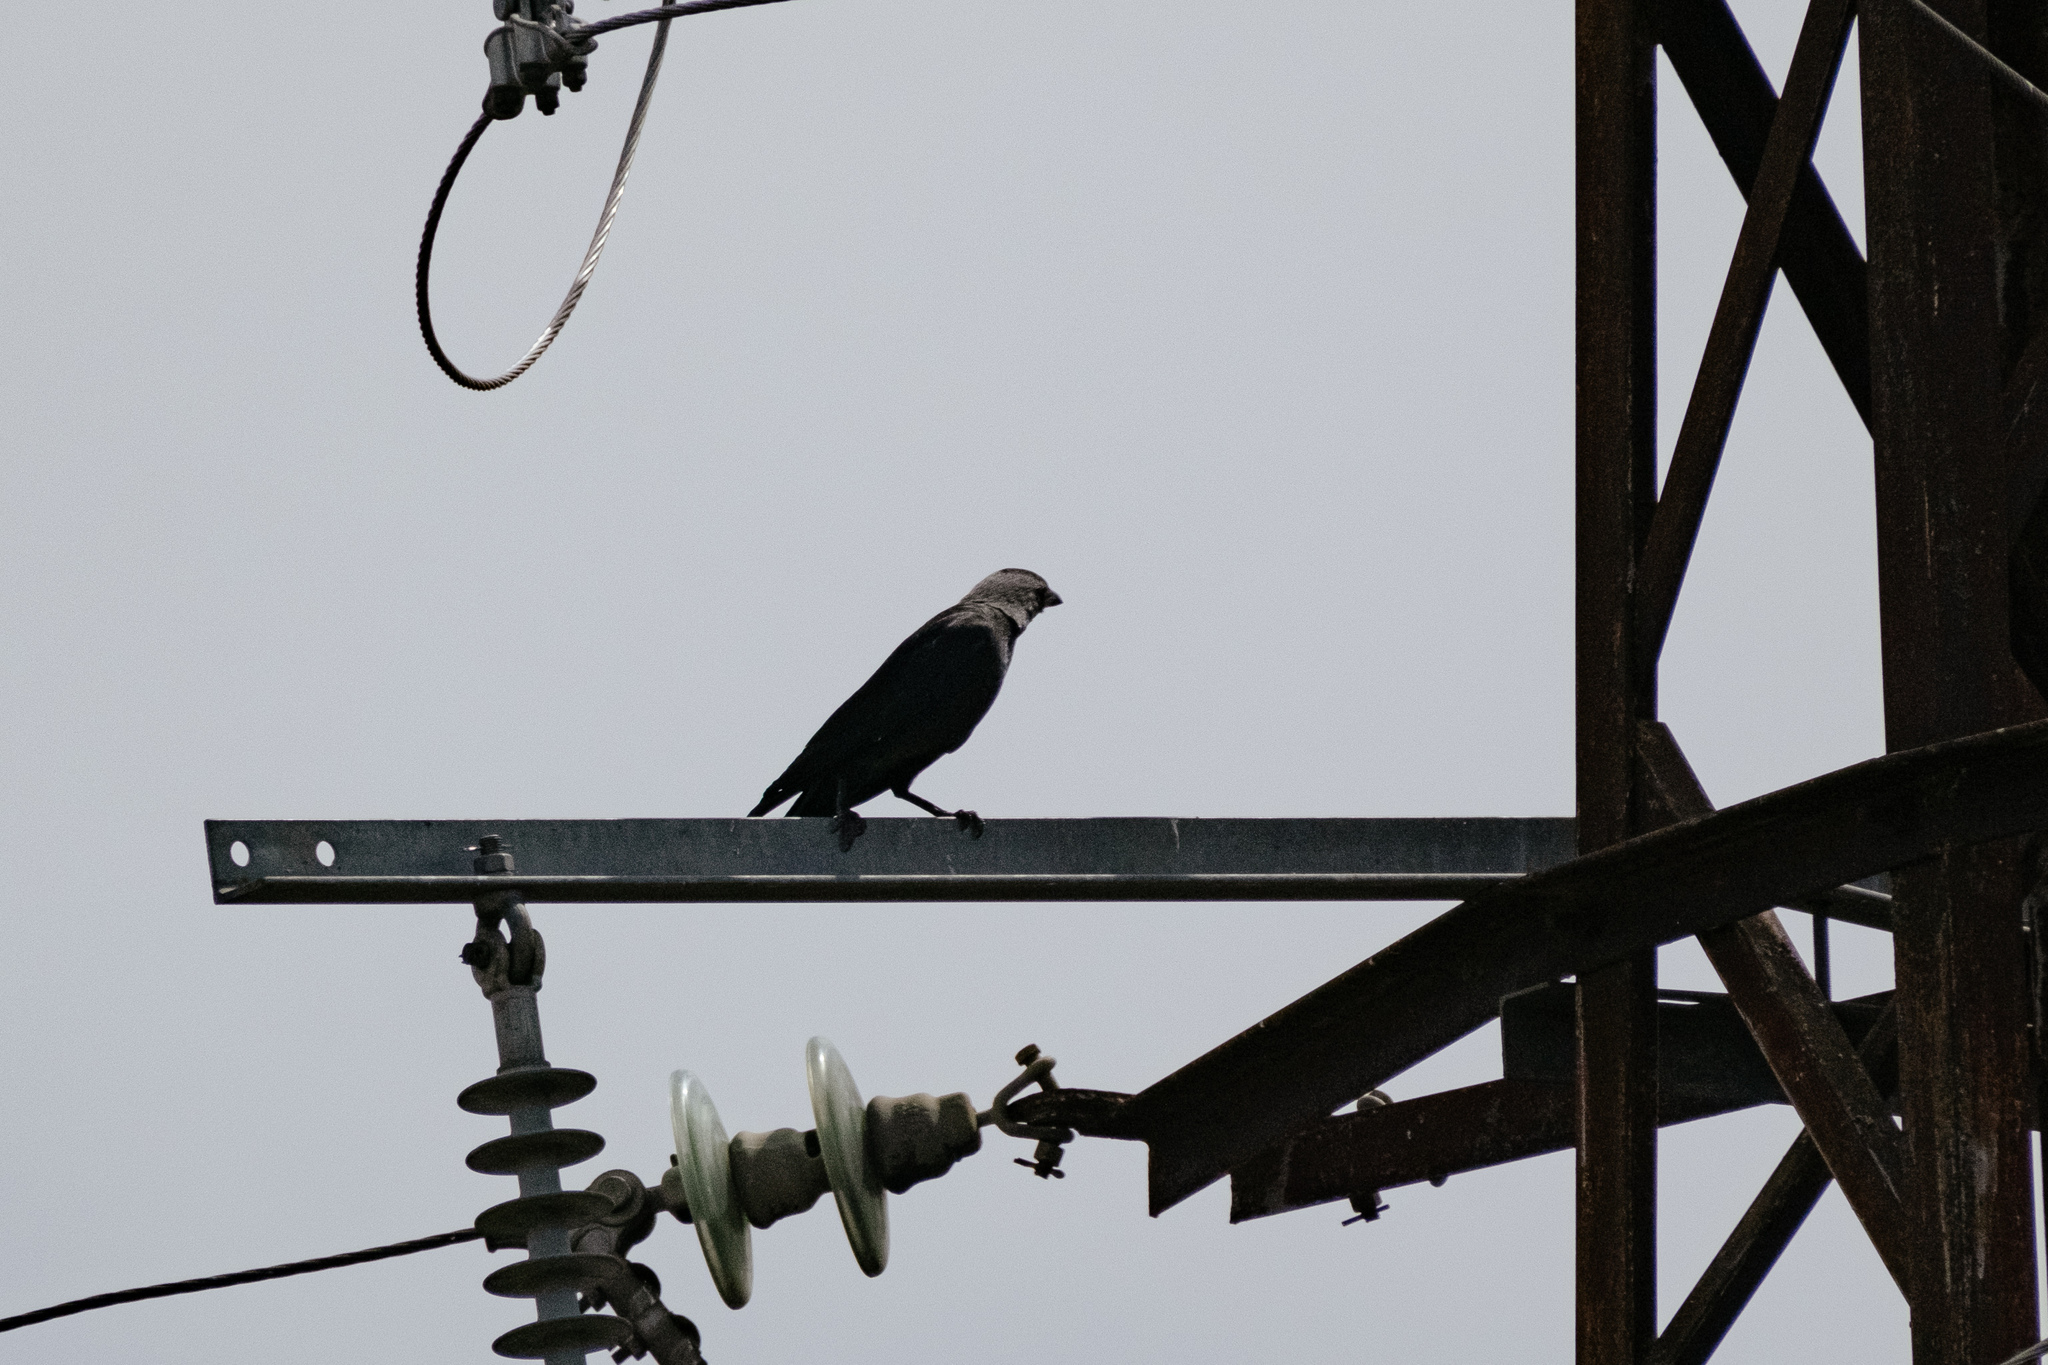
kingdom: Animalia
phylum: Chordata
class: Aves
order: Passeriformes
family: Corvidae
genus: Coloeus
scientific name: Coloeus monedula
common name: Western jackdaw
